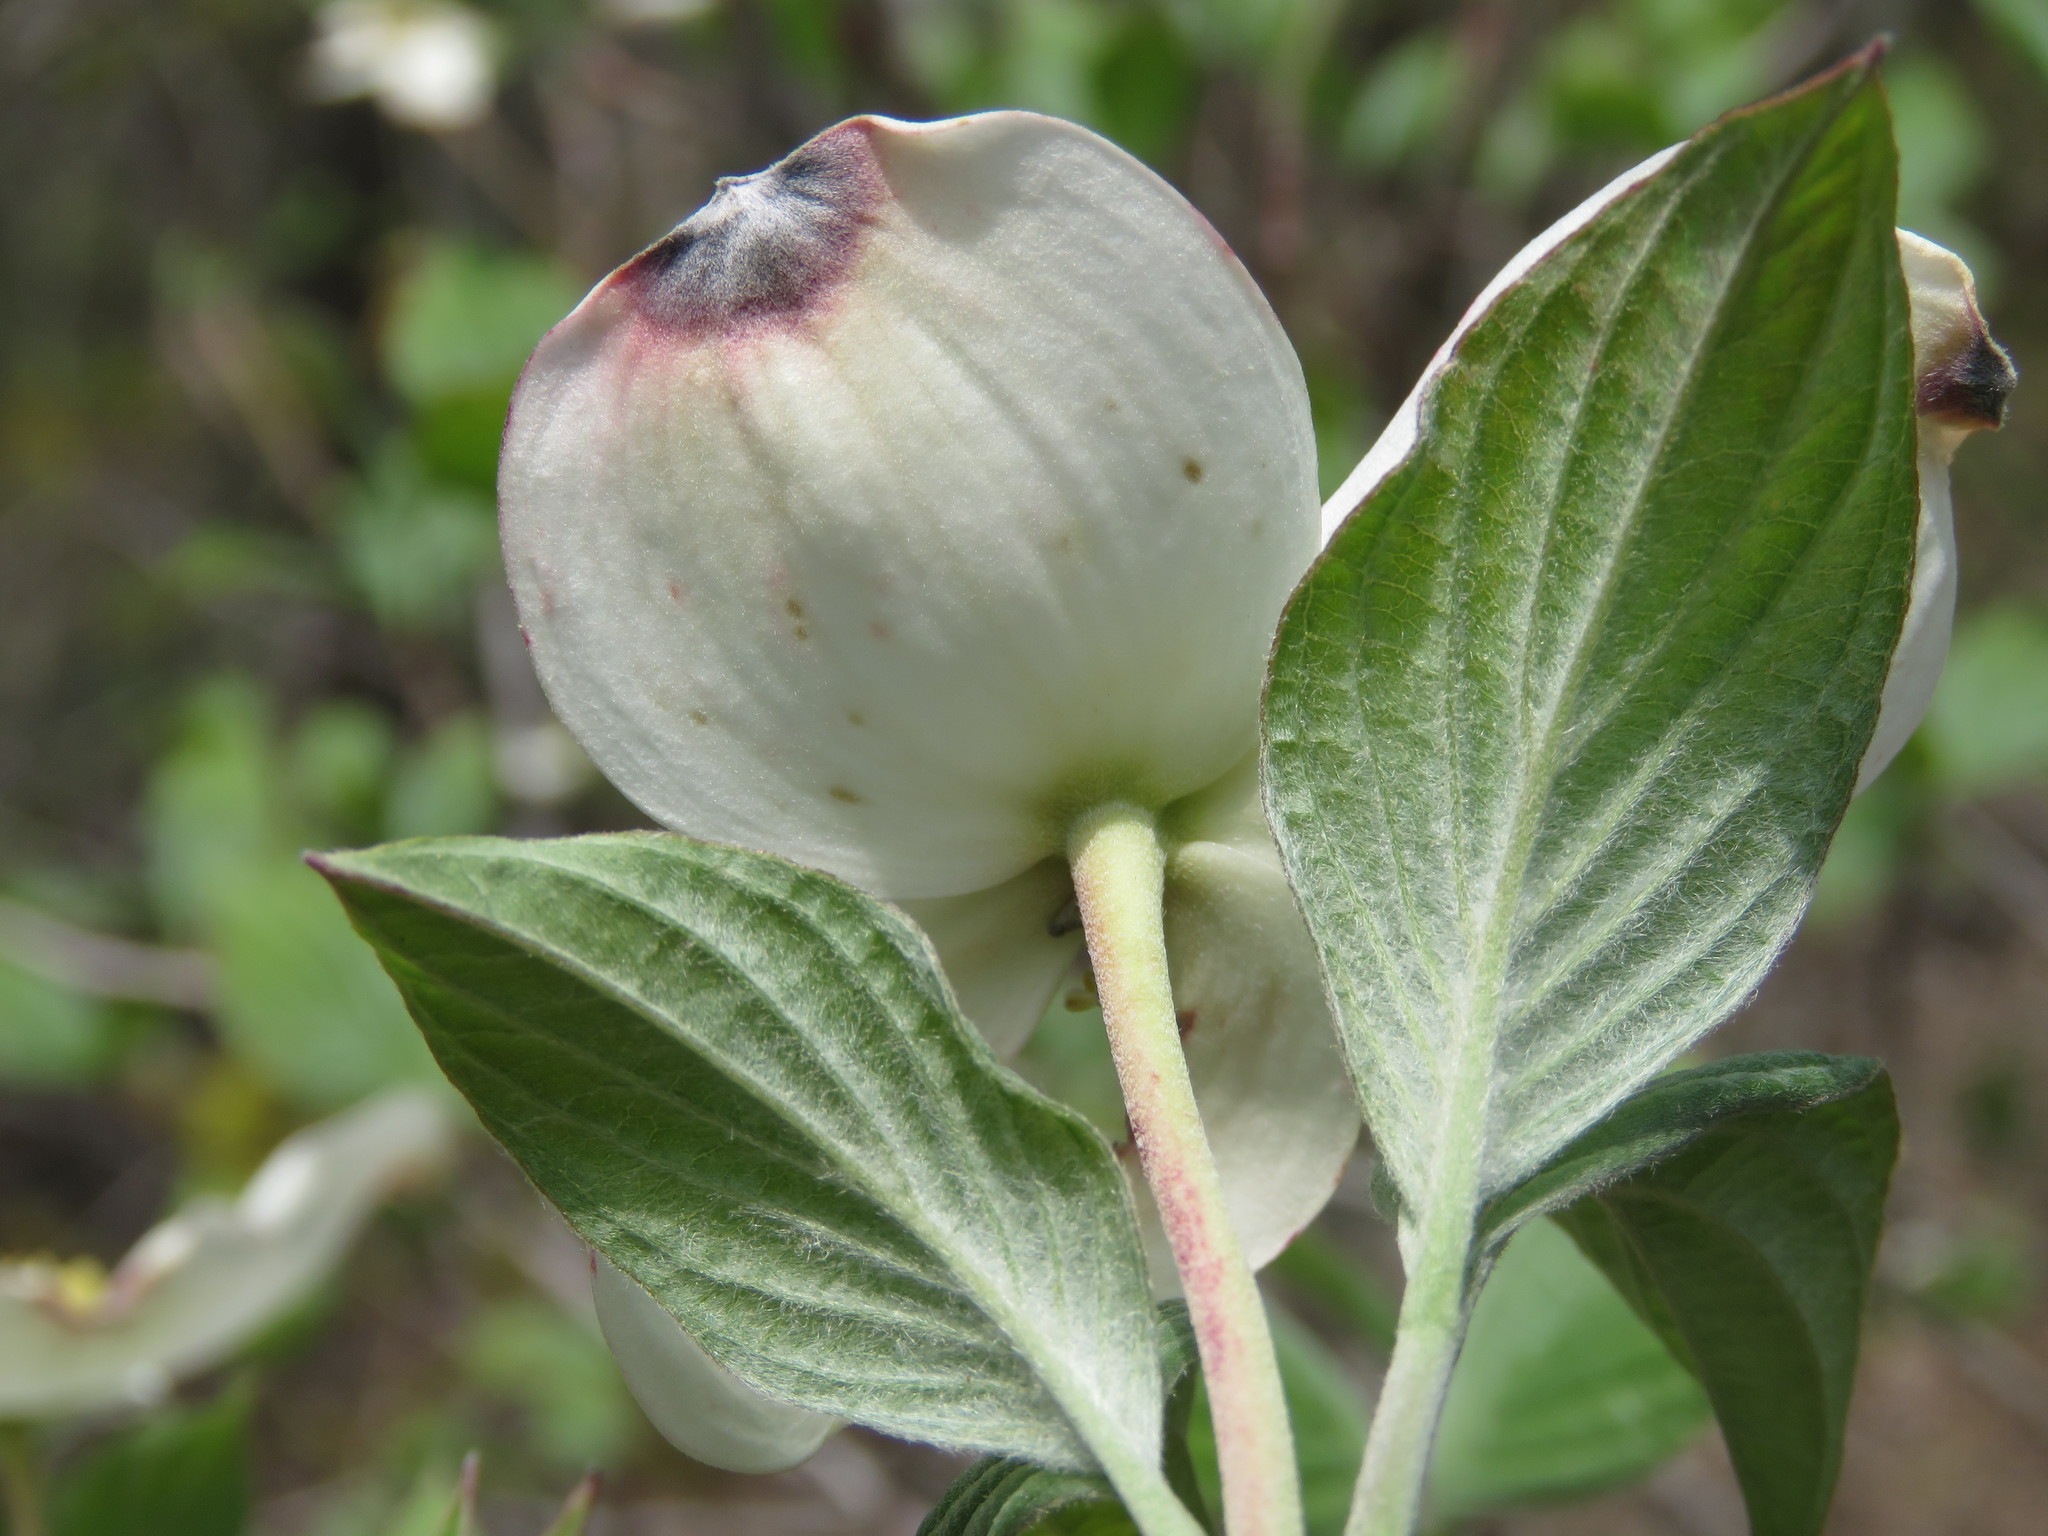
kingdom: Plantae
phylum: Tracheophyta
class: Magnoliopsida
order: Cornales
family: Cornaceae
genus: Cornus
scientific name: Cornus florida
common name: Flowering dogwood
